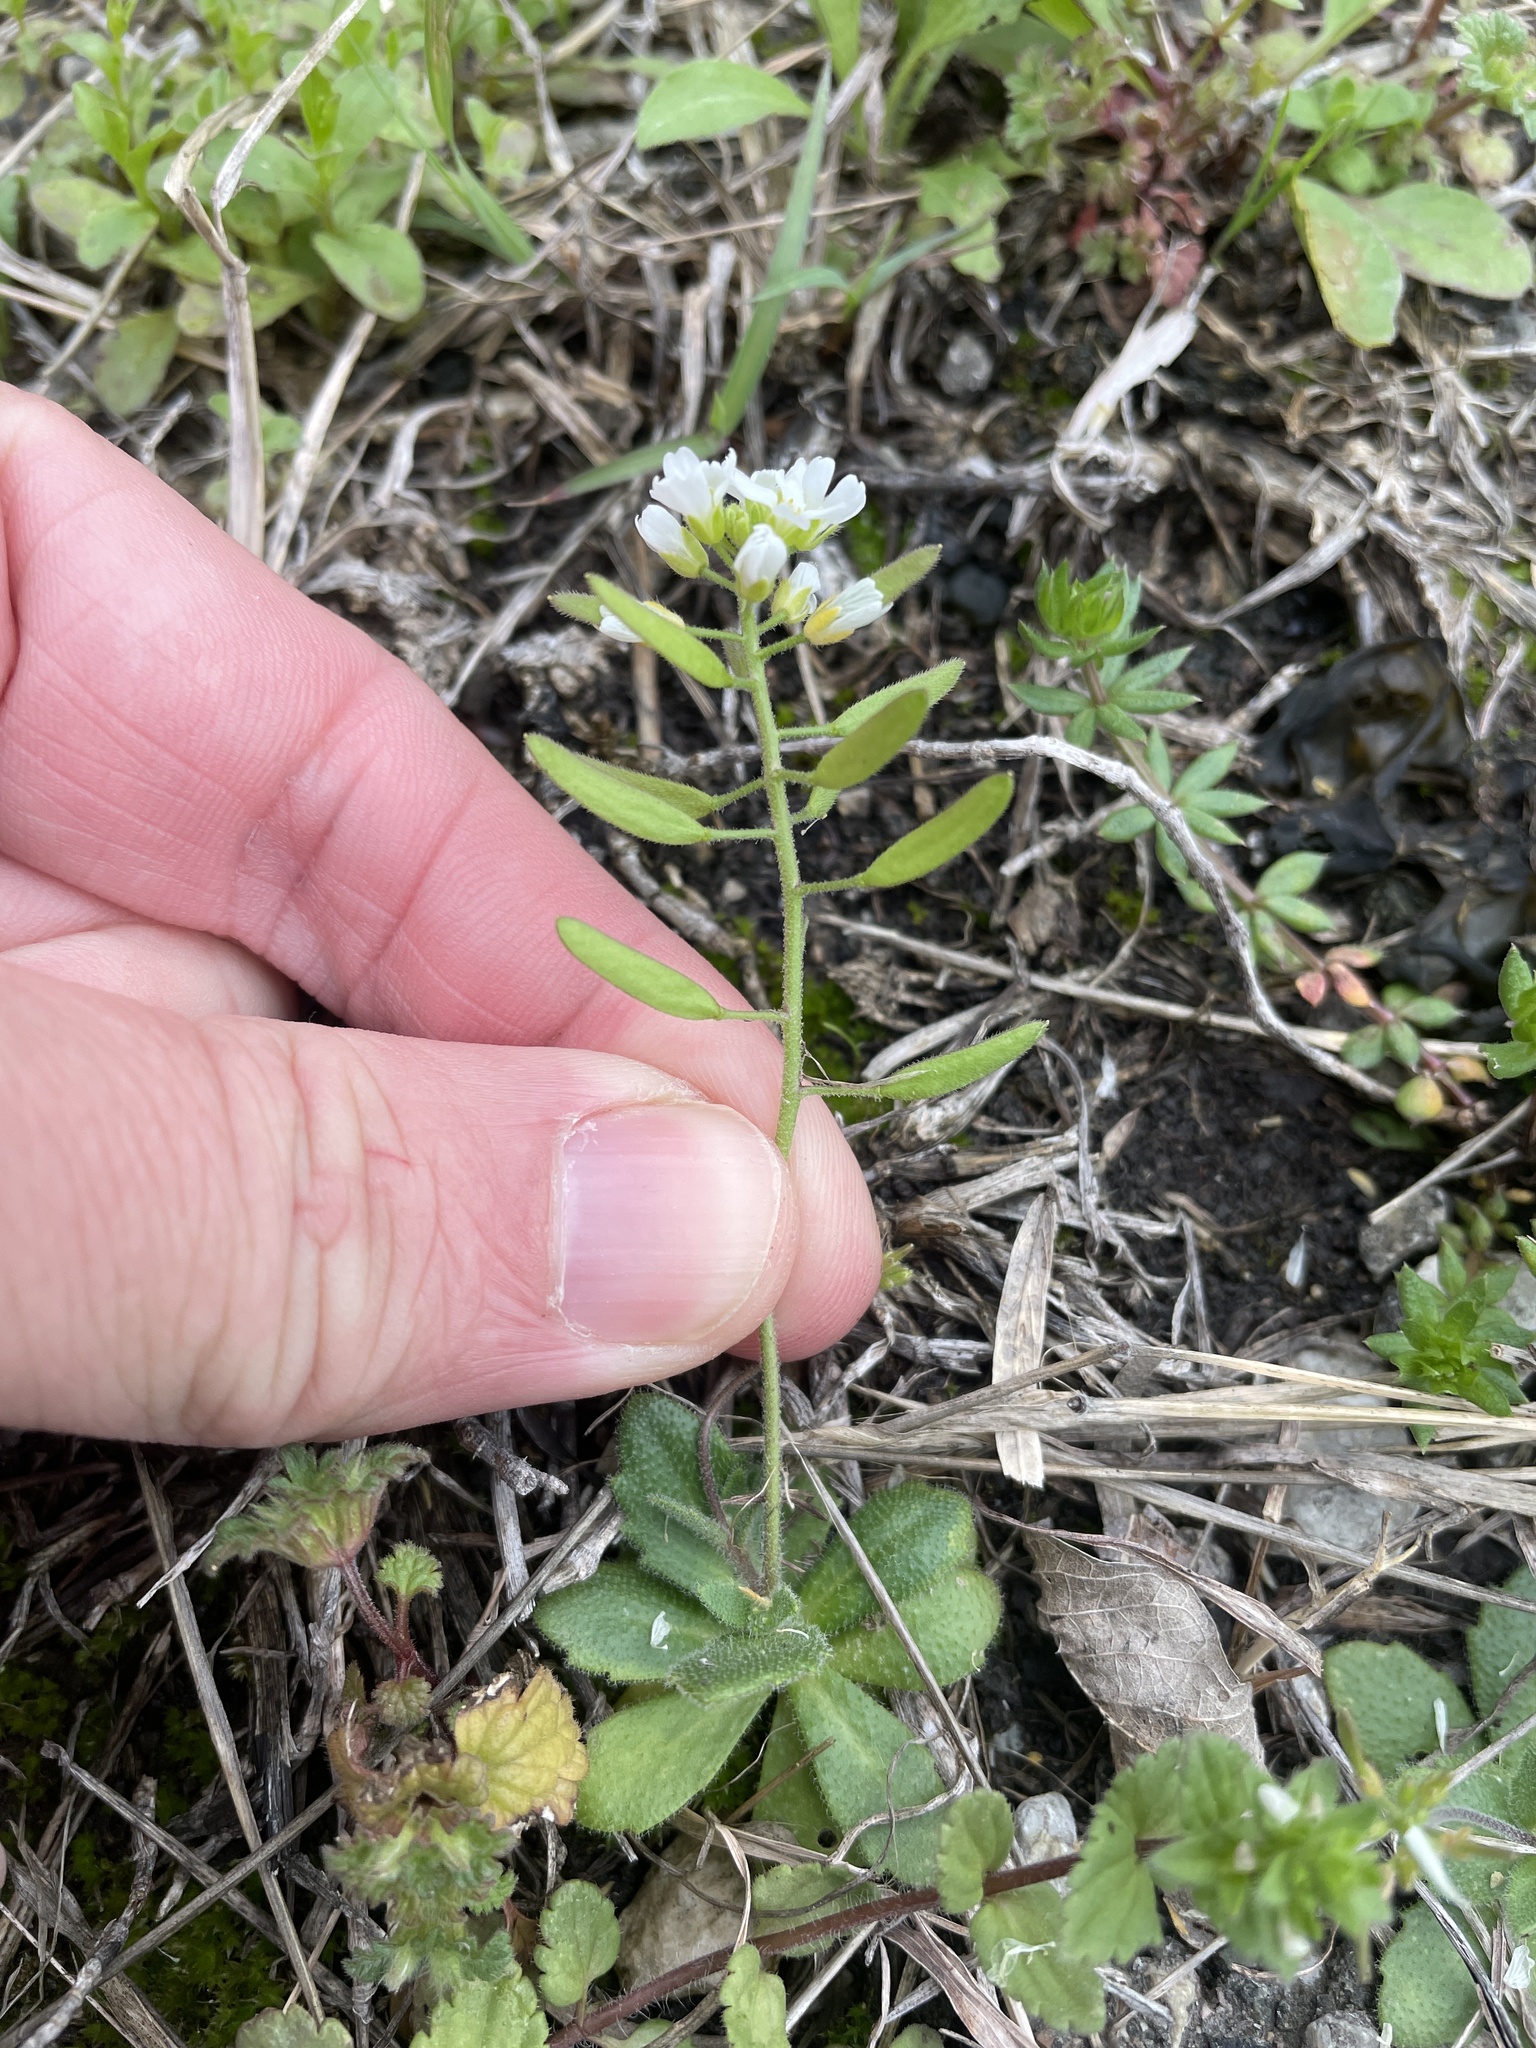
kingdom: Plantae
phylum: Tracheophyta
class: Magnoliopsida
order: Brassicales
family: Brassicaceae
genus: Tomostima
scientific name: Tomostima cuneifolia
